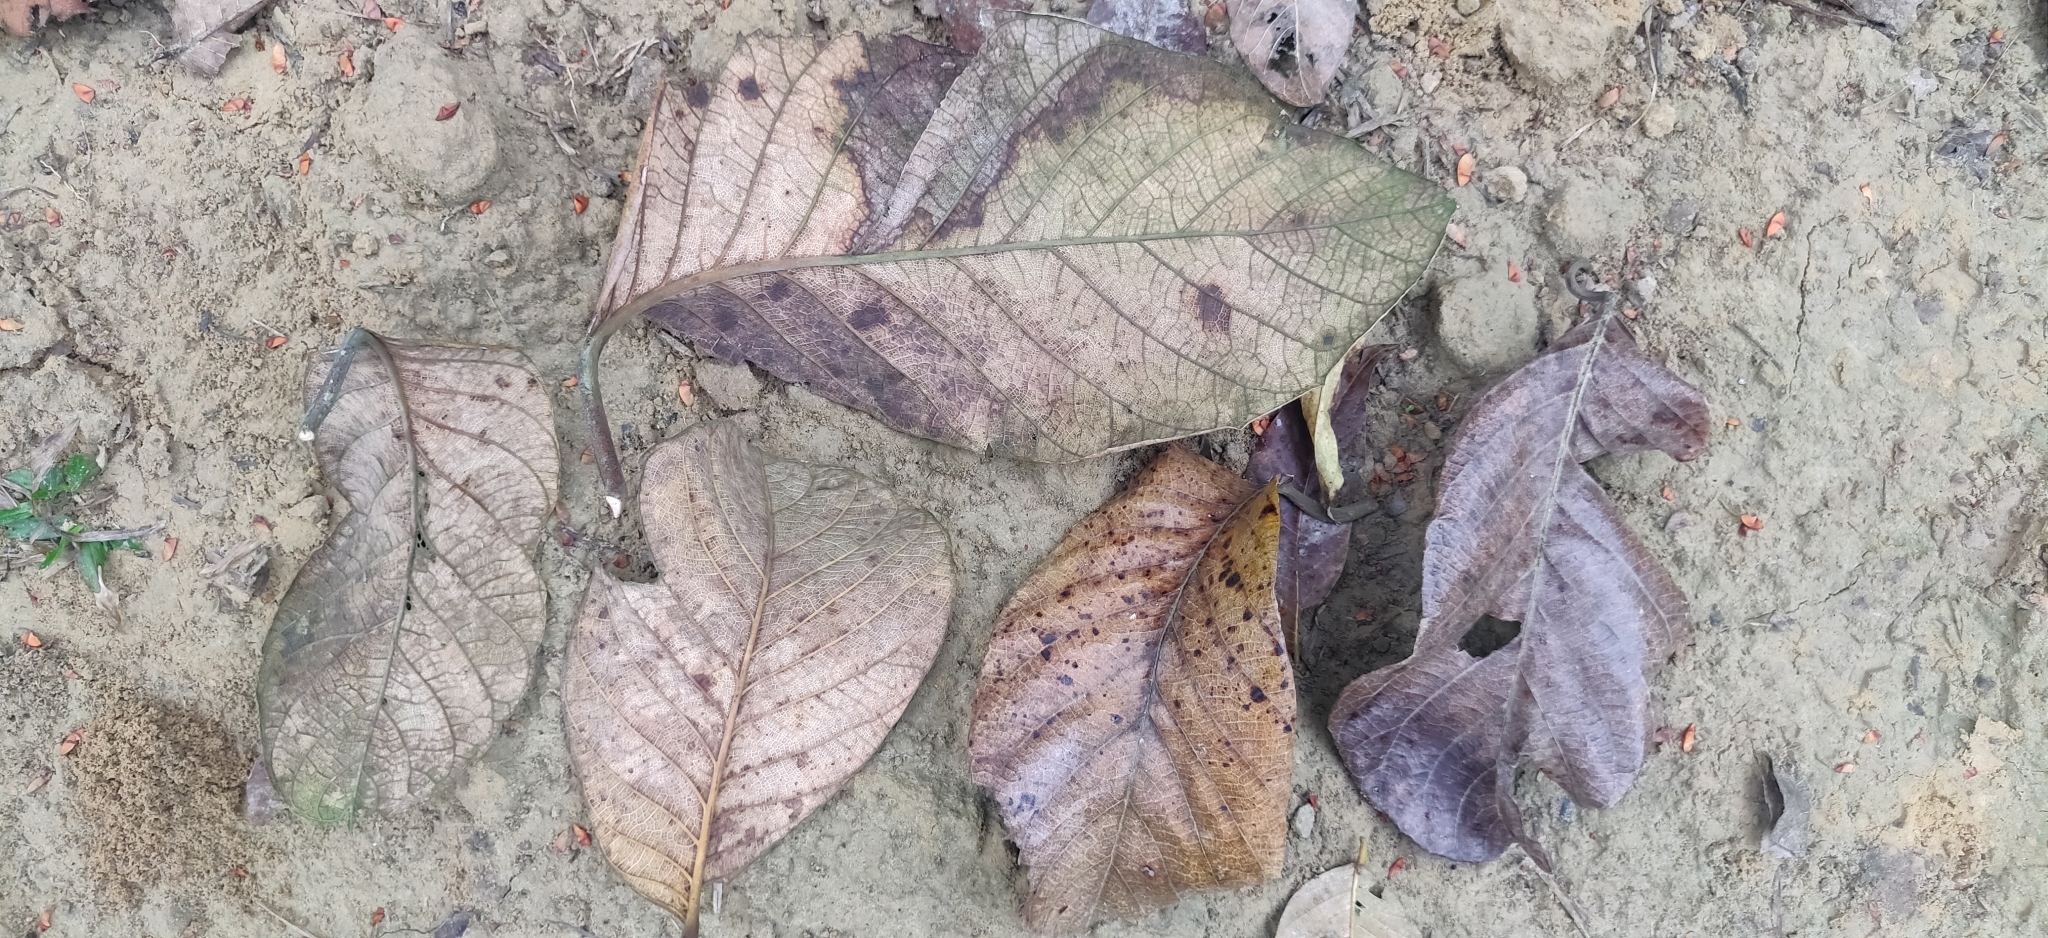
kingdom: Plantae
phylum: Tracheophyta
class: Magnoliopsida
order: Rosales
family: Moraceae
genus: Artocarpus
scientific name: Artocarpus lacucha
